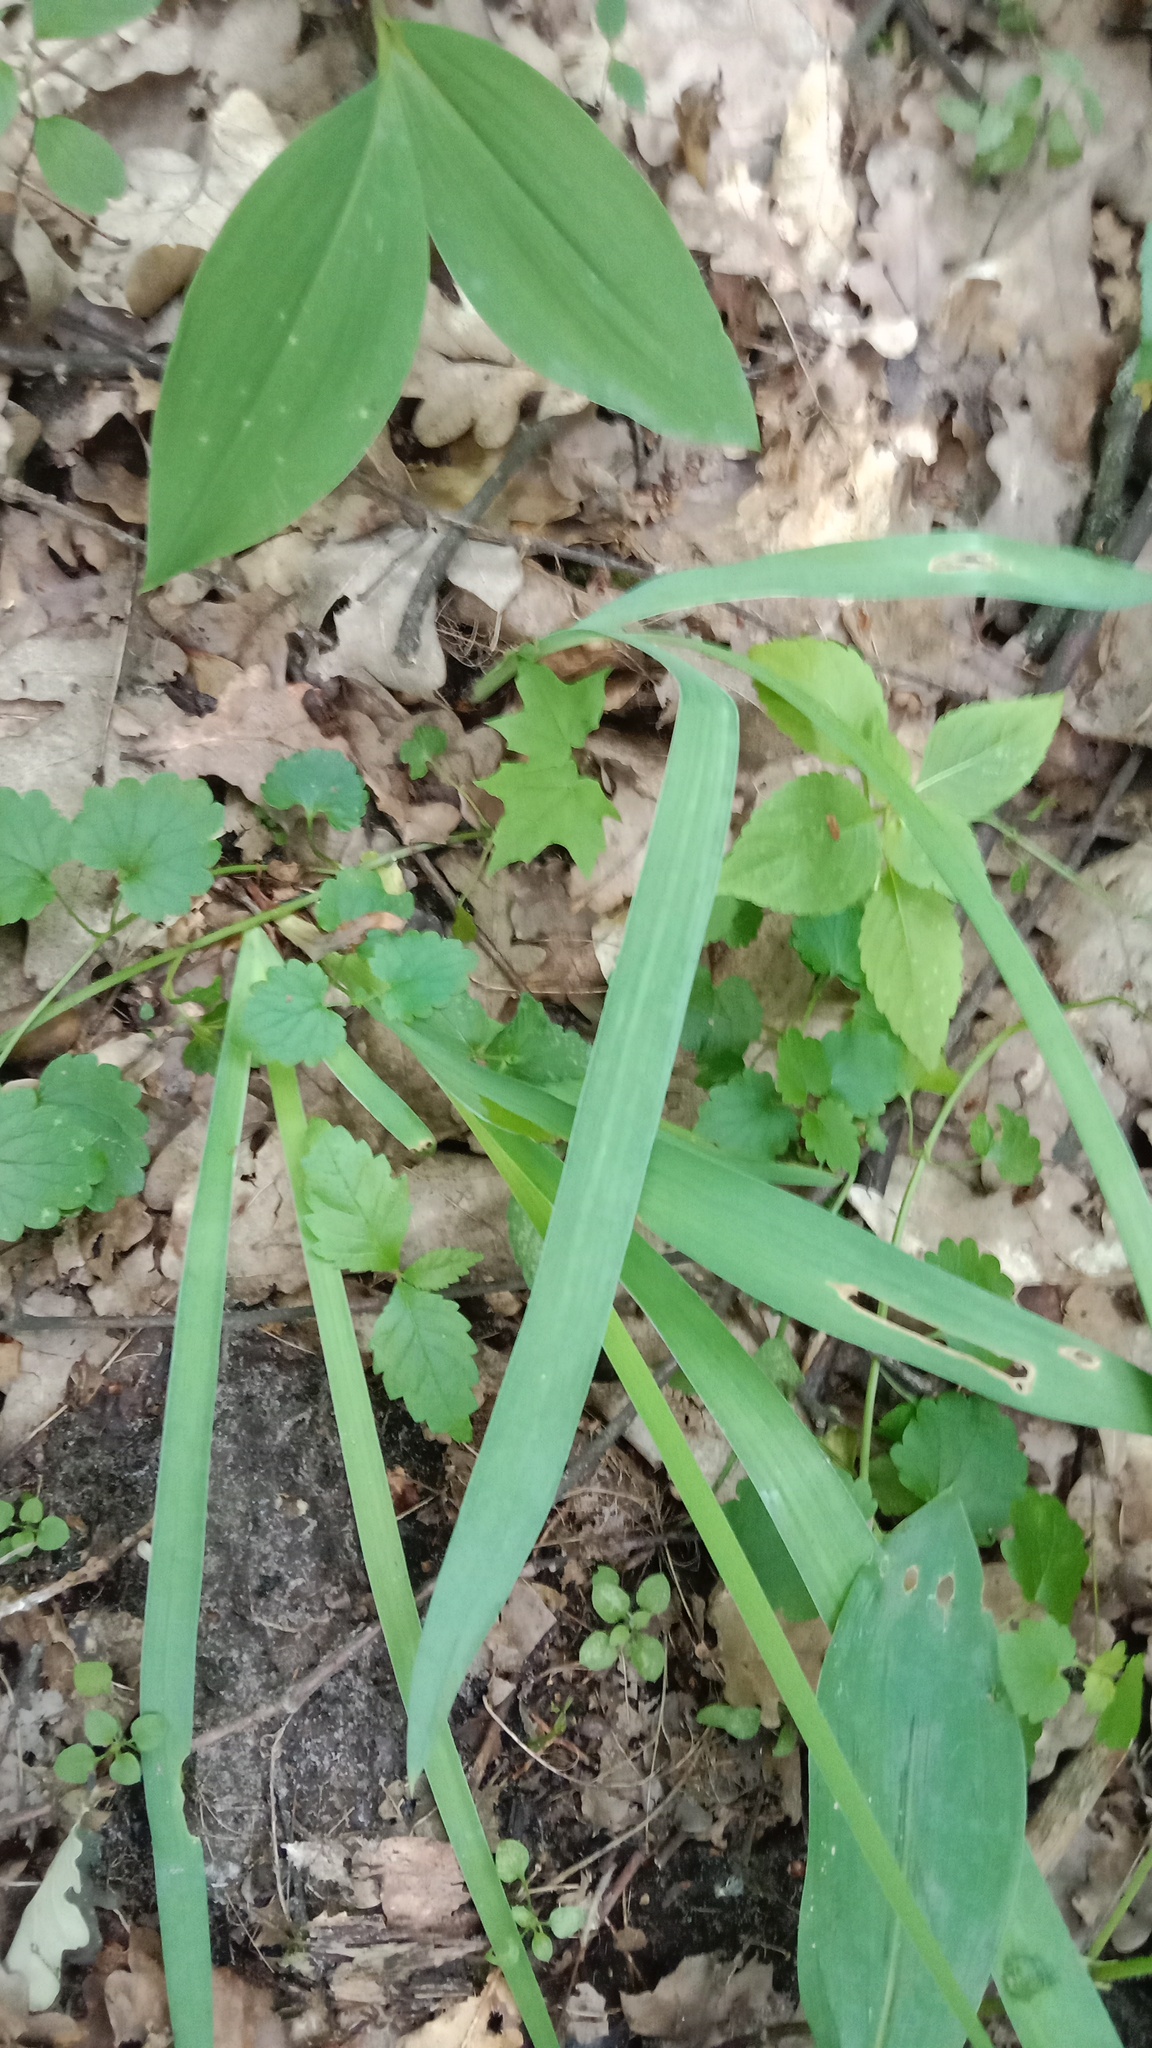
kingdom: Plantae
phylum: Tracheophyta
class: Liliopsida
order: Asparagales
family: Iridaceae
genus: Iris
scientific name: Iris aphylla
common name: Stool iris
